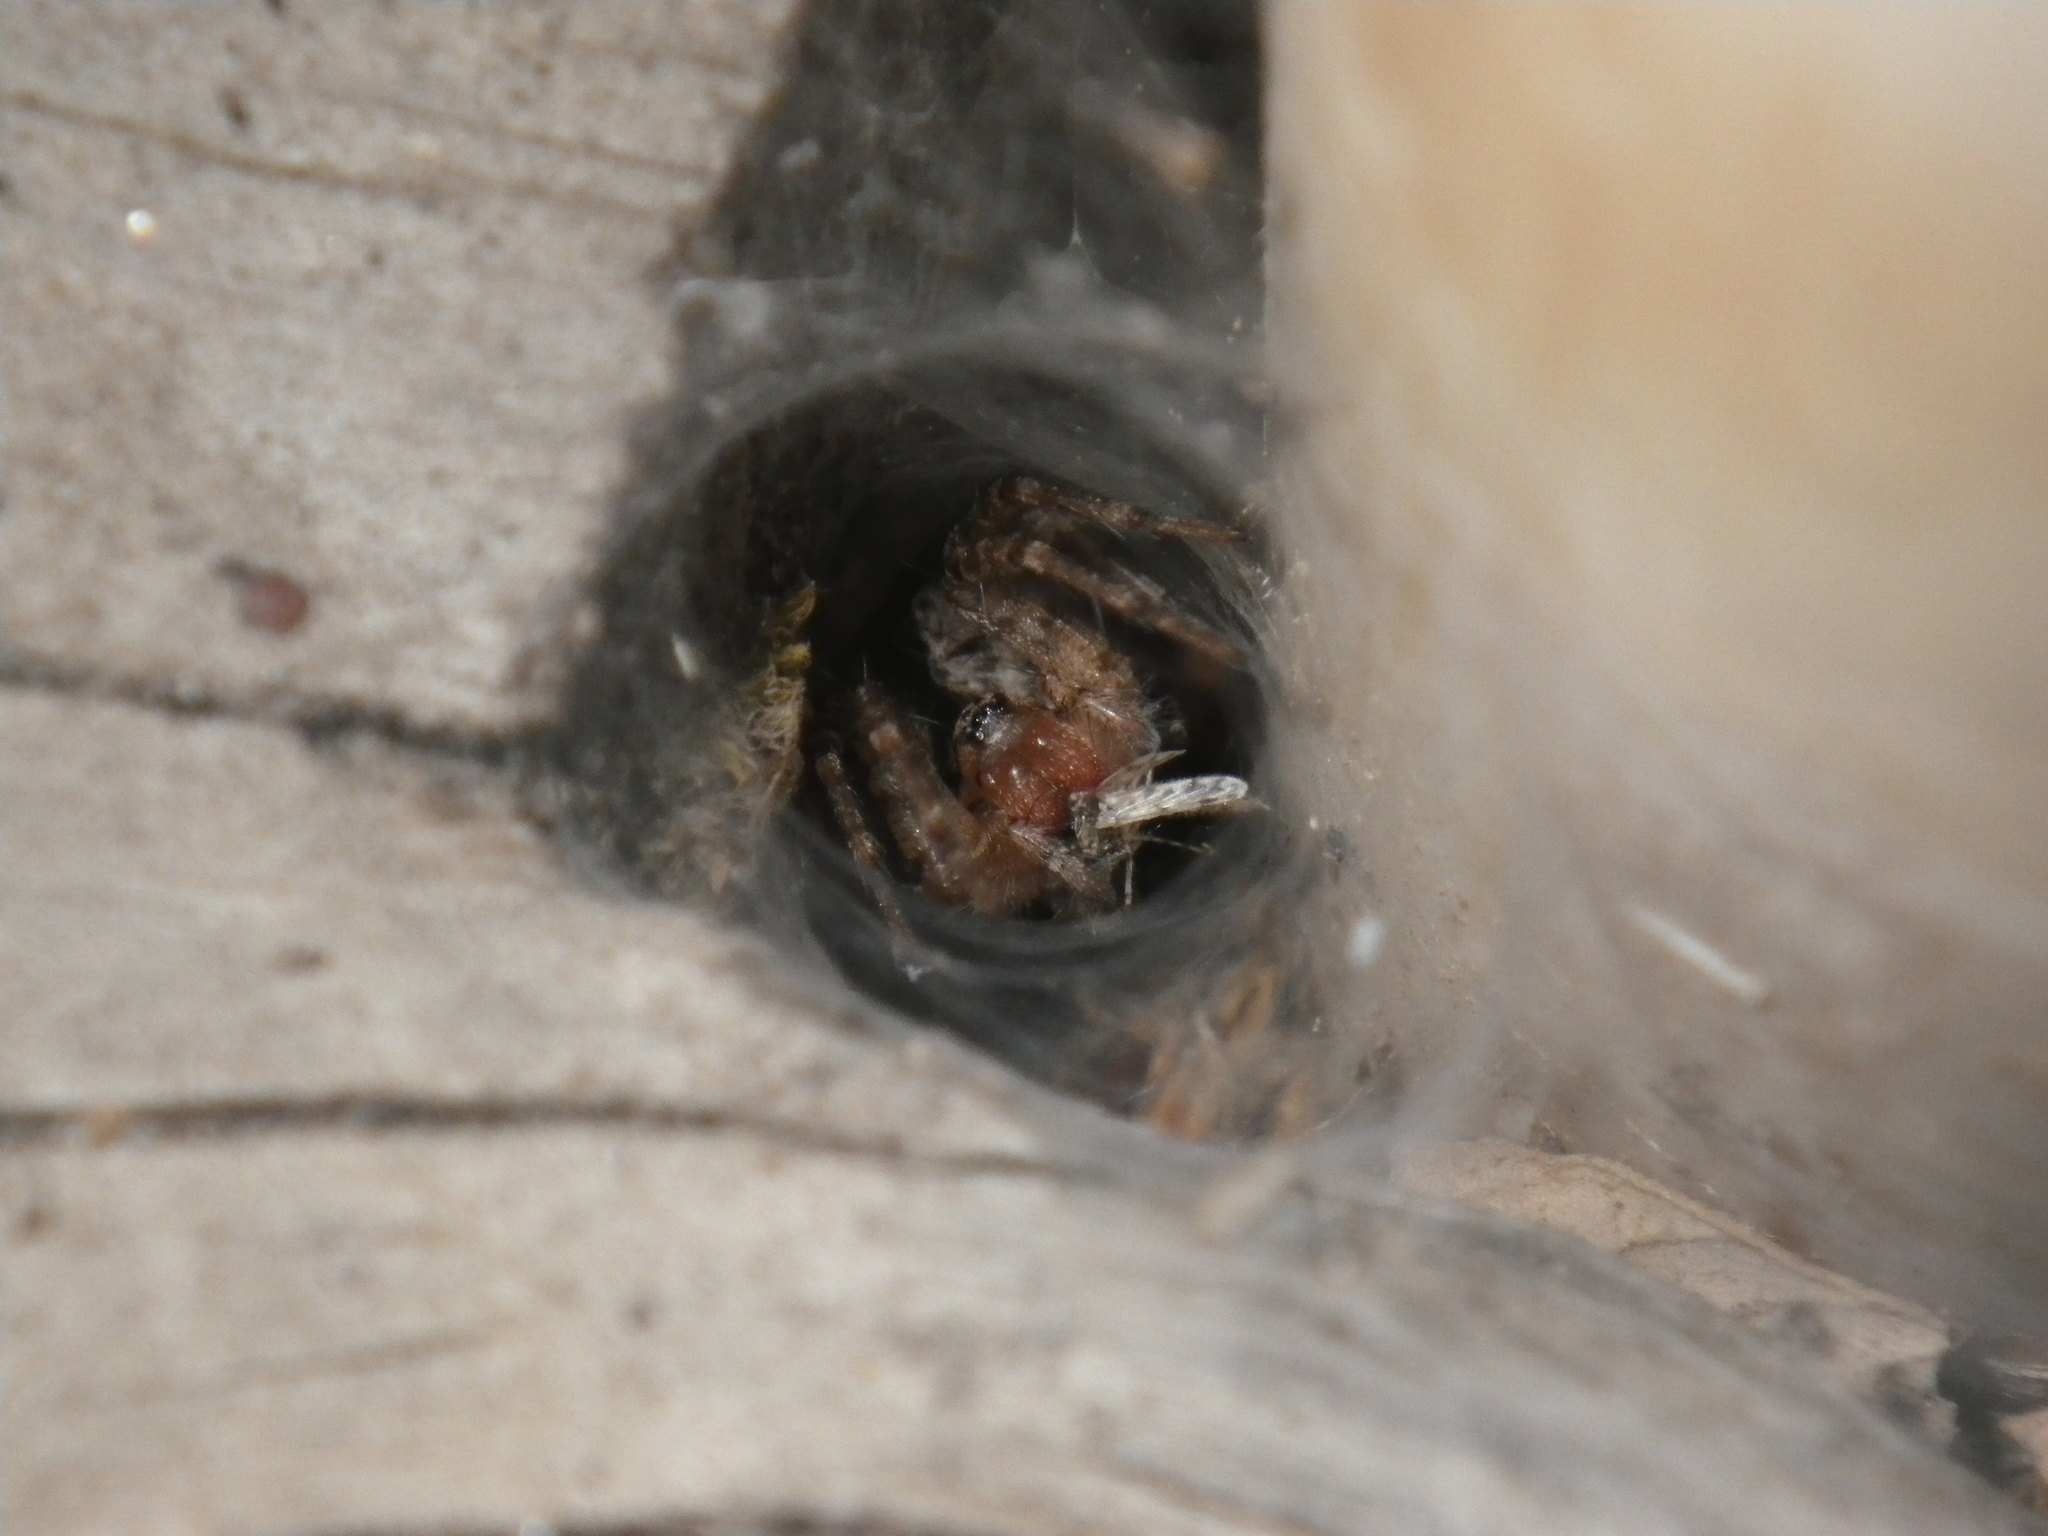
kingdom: Animalia
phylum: Arthropoda
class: Arachnida
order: Araneae
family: Agelenidae
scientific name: Agelenidae
